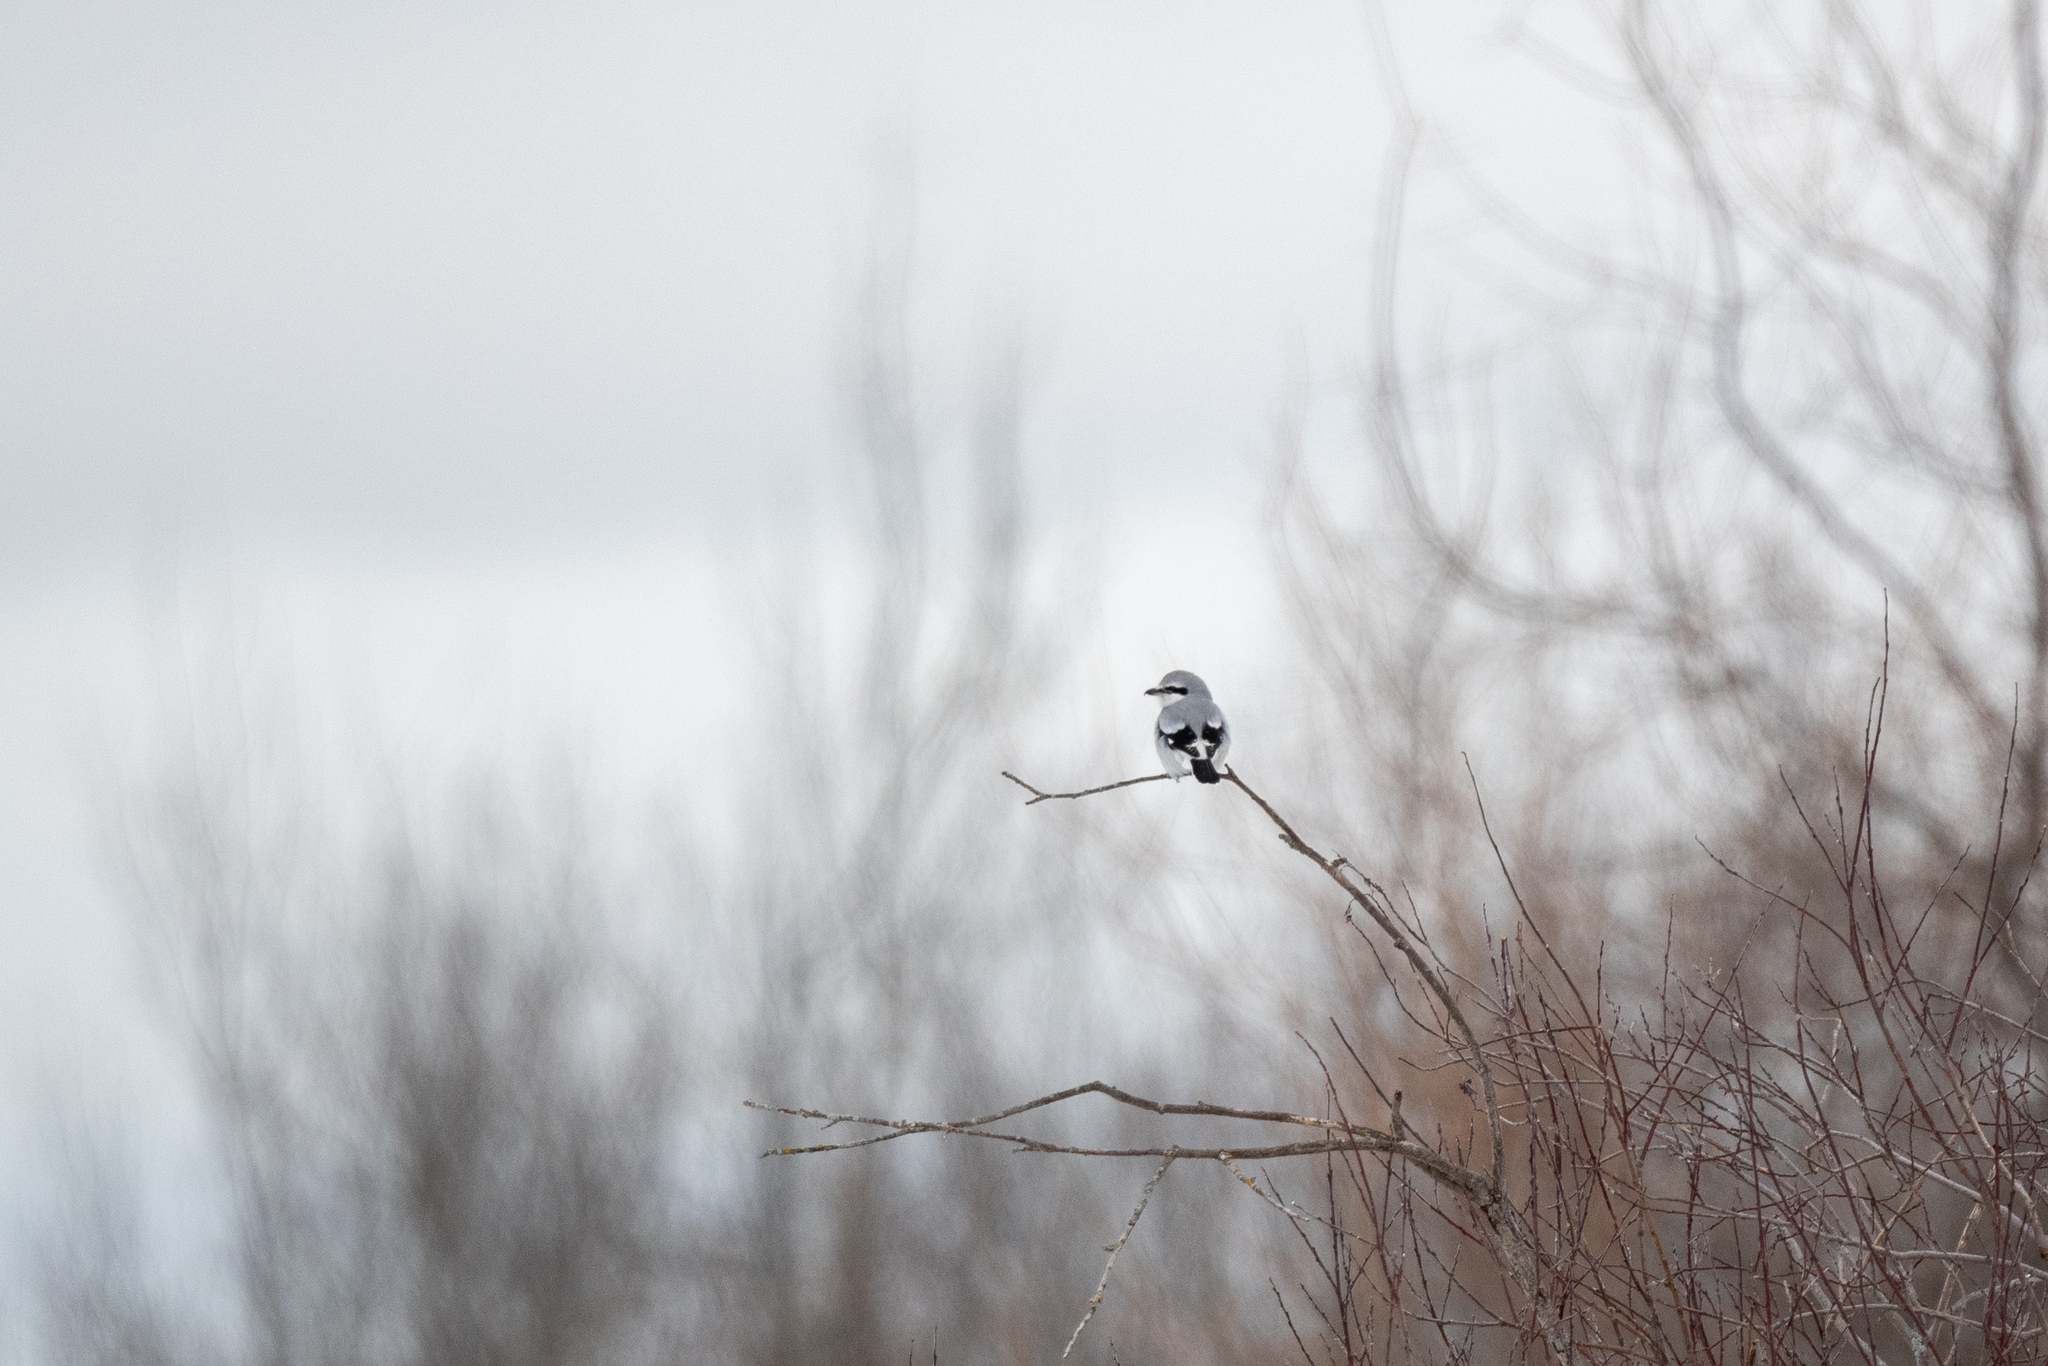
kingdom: Animalia
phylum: Chordata
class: Aves
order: Passeriformes
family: Laniidae
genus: Lanius
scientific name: Lanius borealis
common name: Northern shrike
